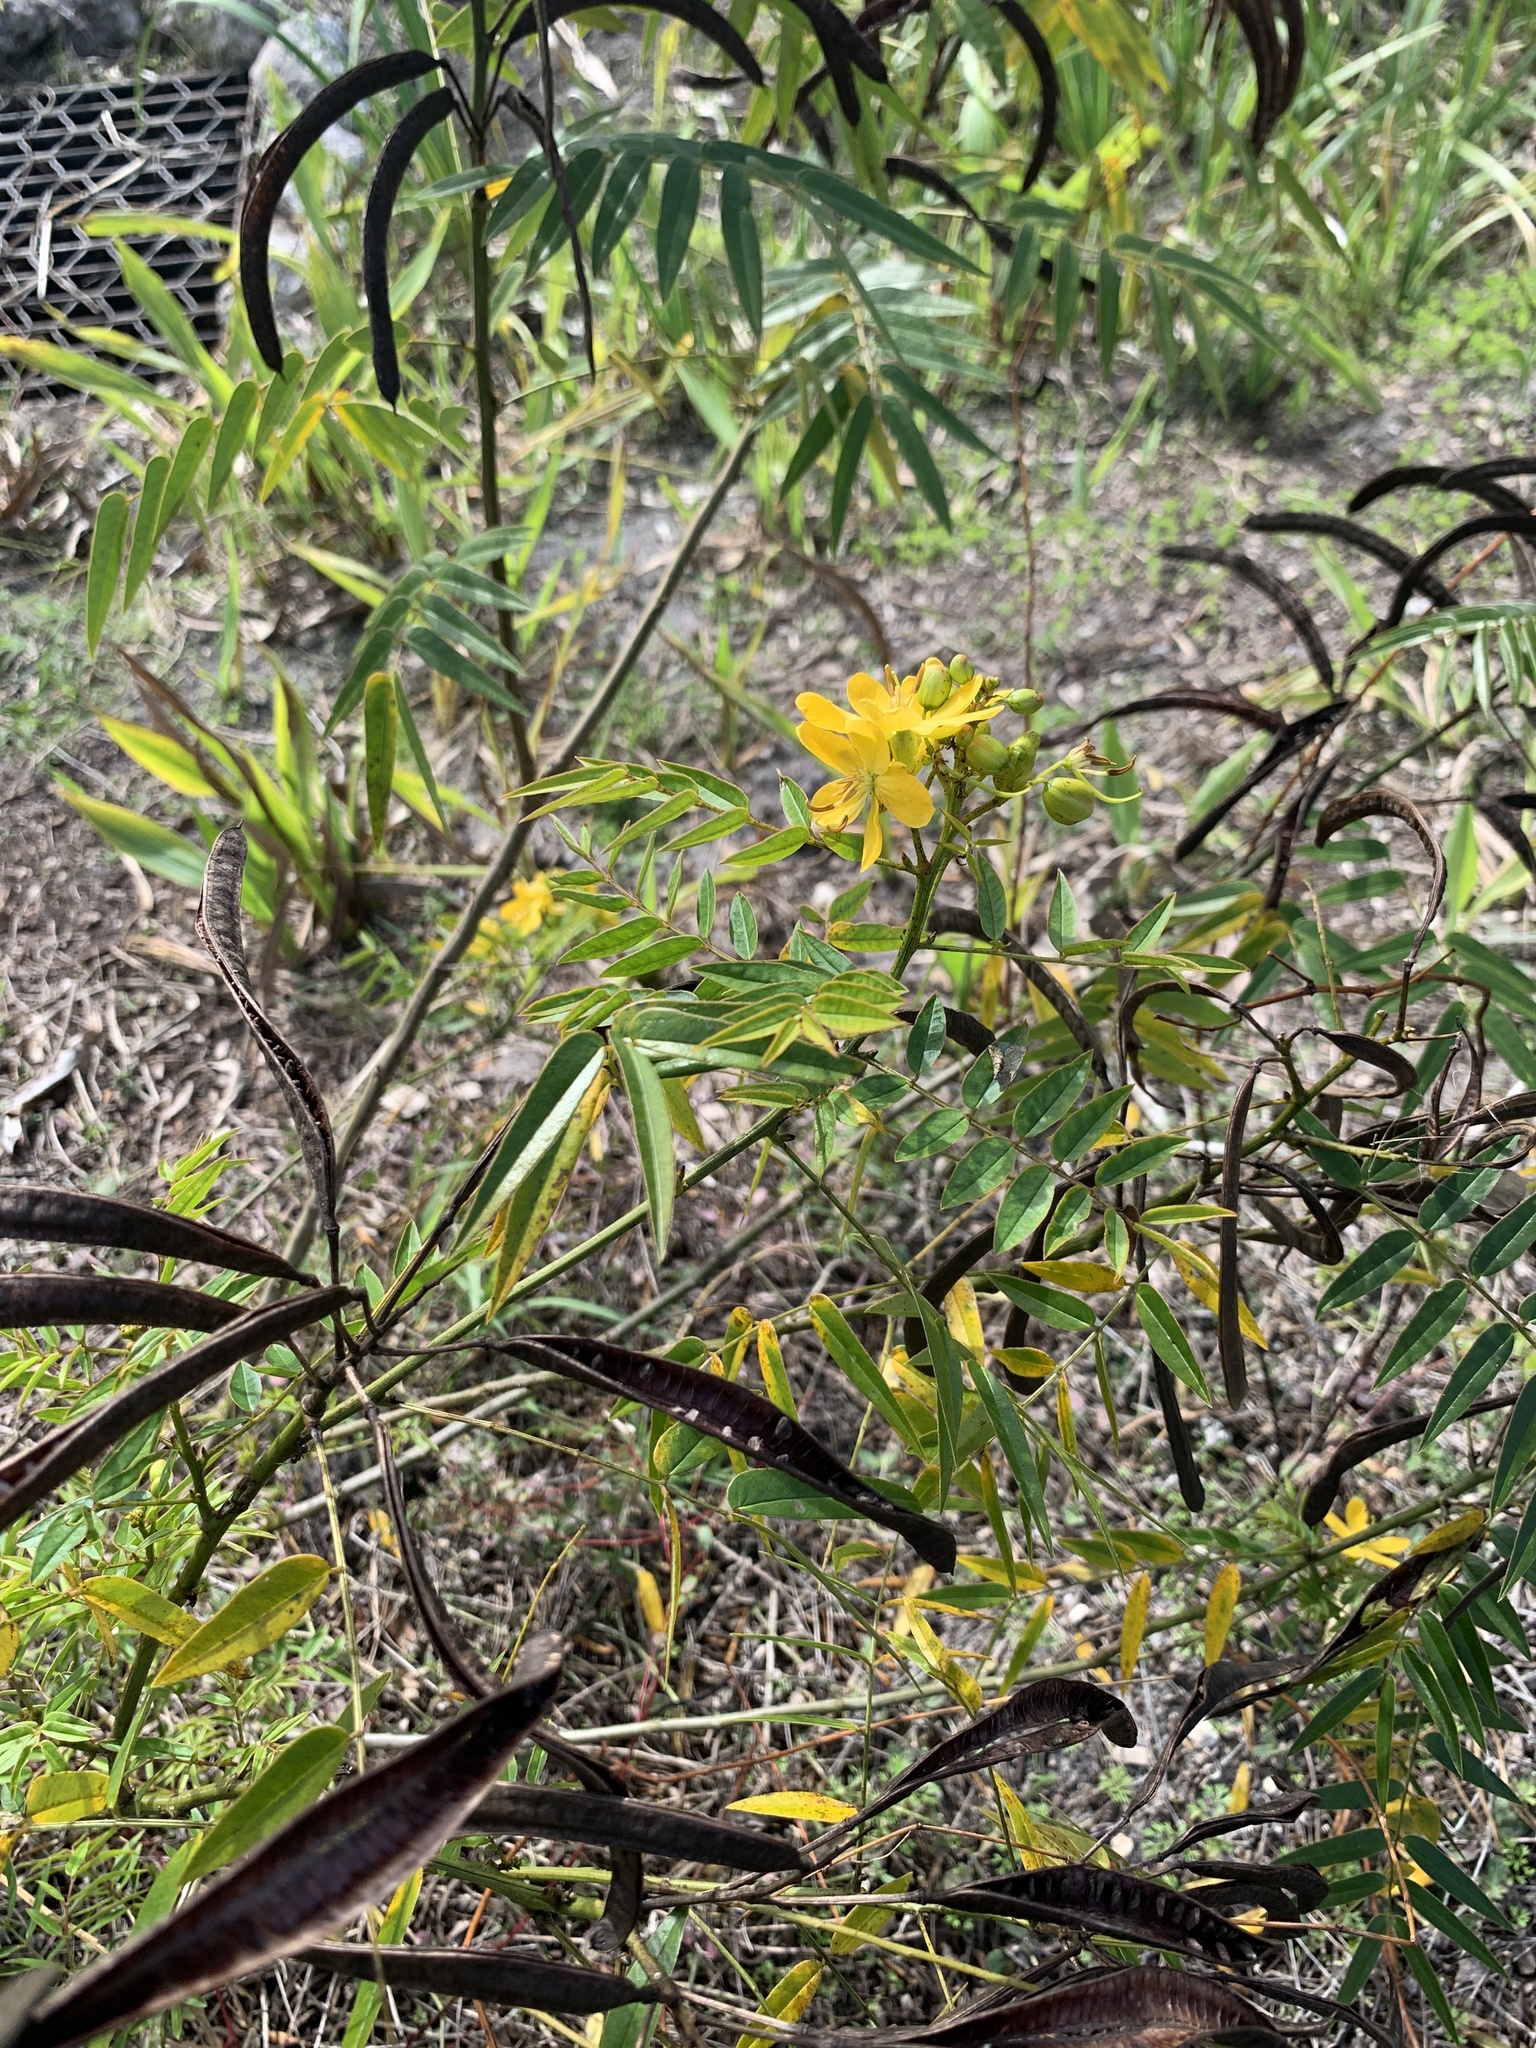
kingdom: Plantae
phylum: Tracheophyta
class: Magnoliopsida
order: Fabales
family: Fabaceae
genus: Senna
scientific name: Senna occidentalis
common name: Septicweed
